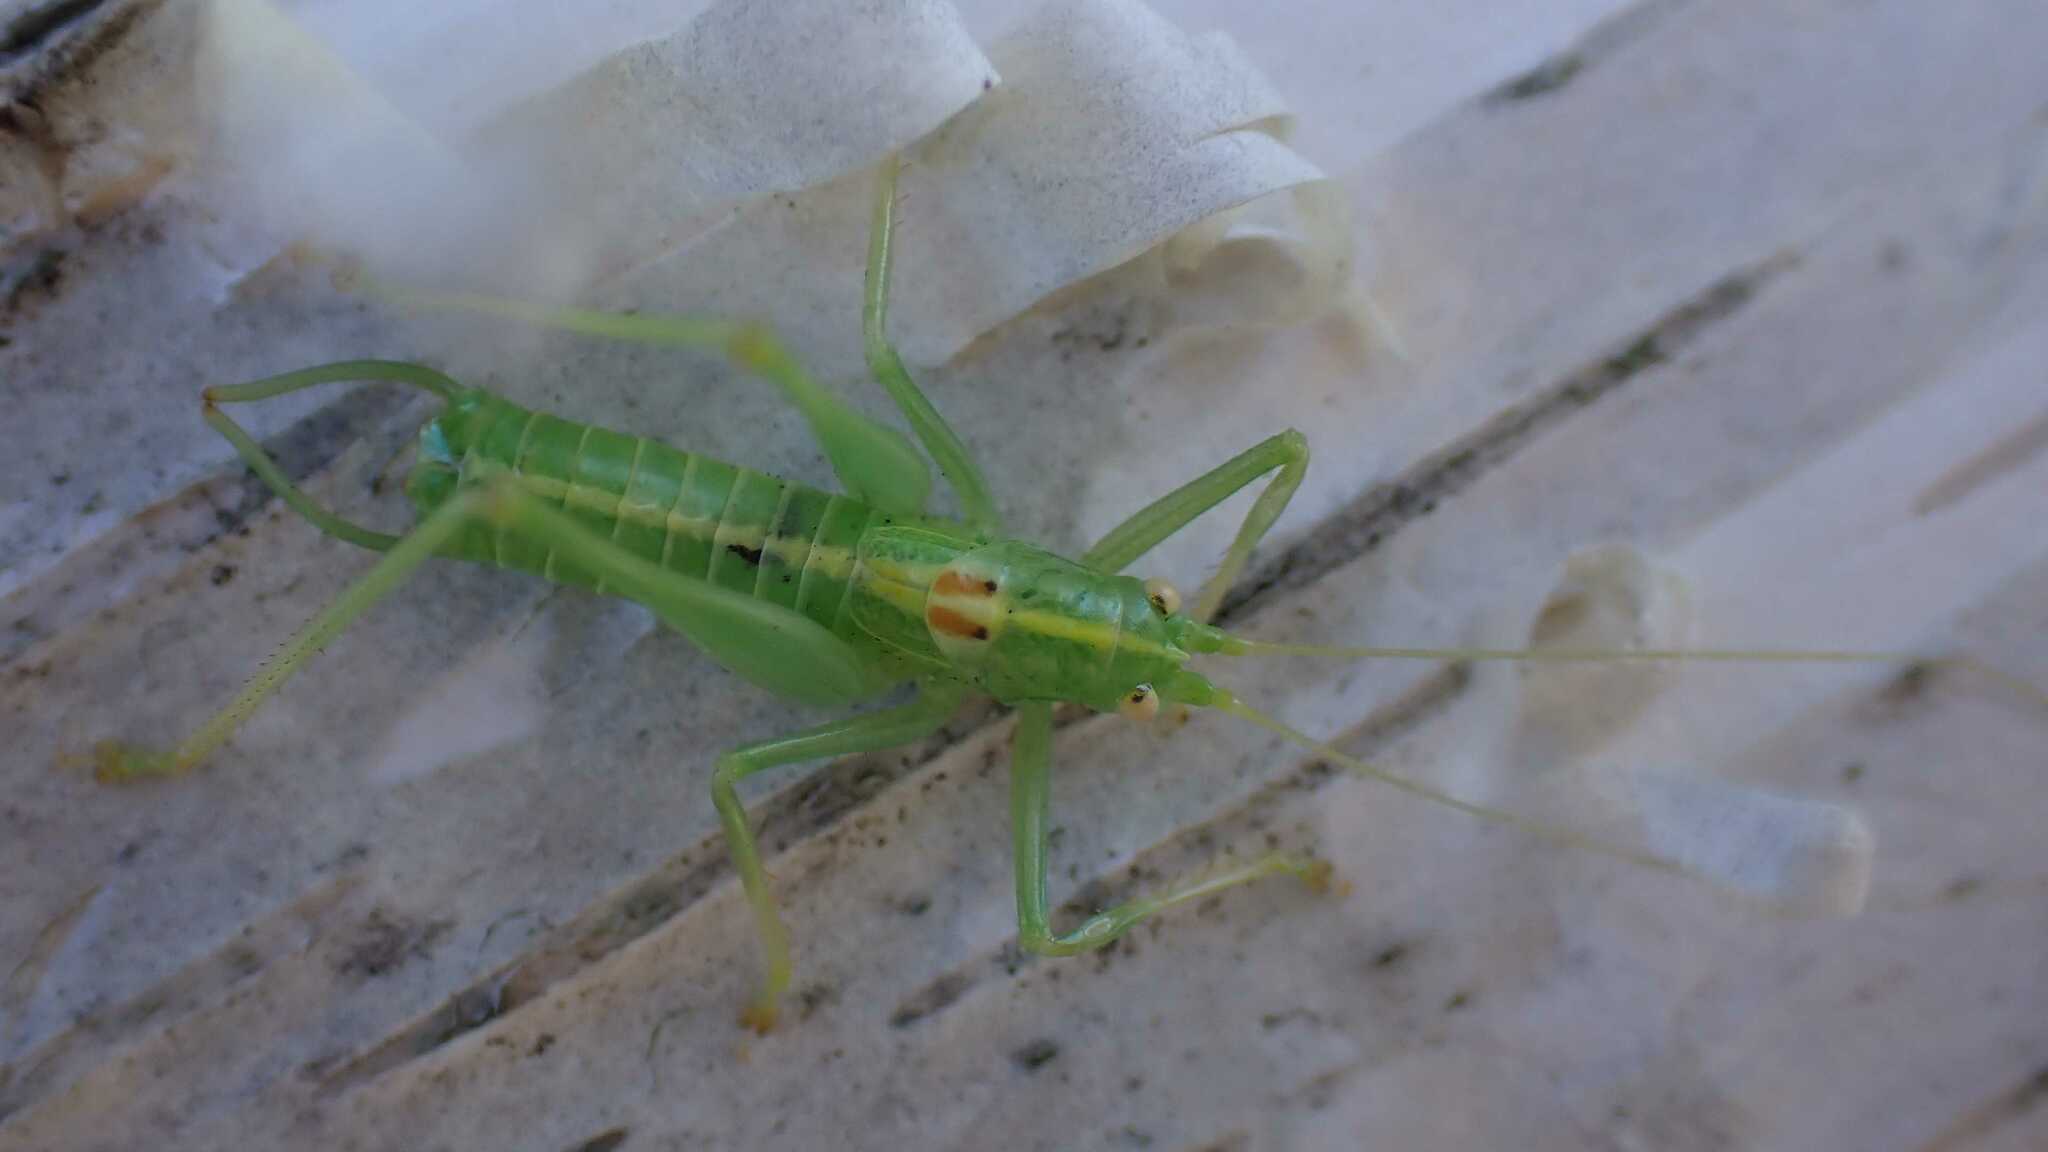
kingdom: Animalia
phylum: Arthropoda
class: Insecta
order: Orthoptera
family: Tettigoniidae
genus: Meconema
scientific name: Meconema meridionale
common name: Southern oak bush-cricket
